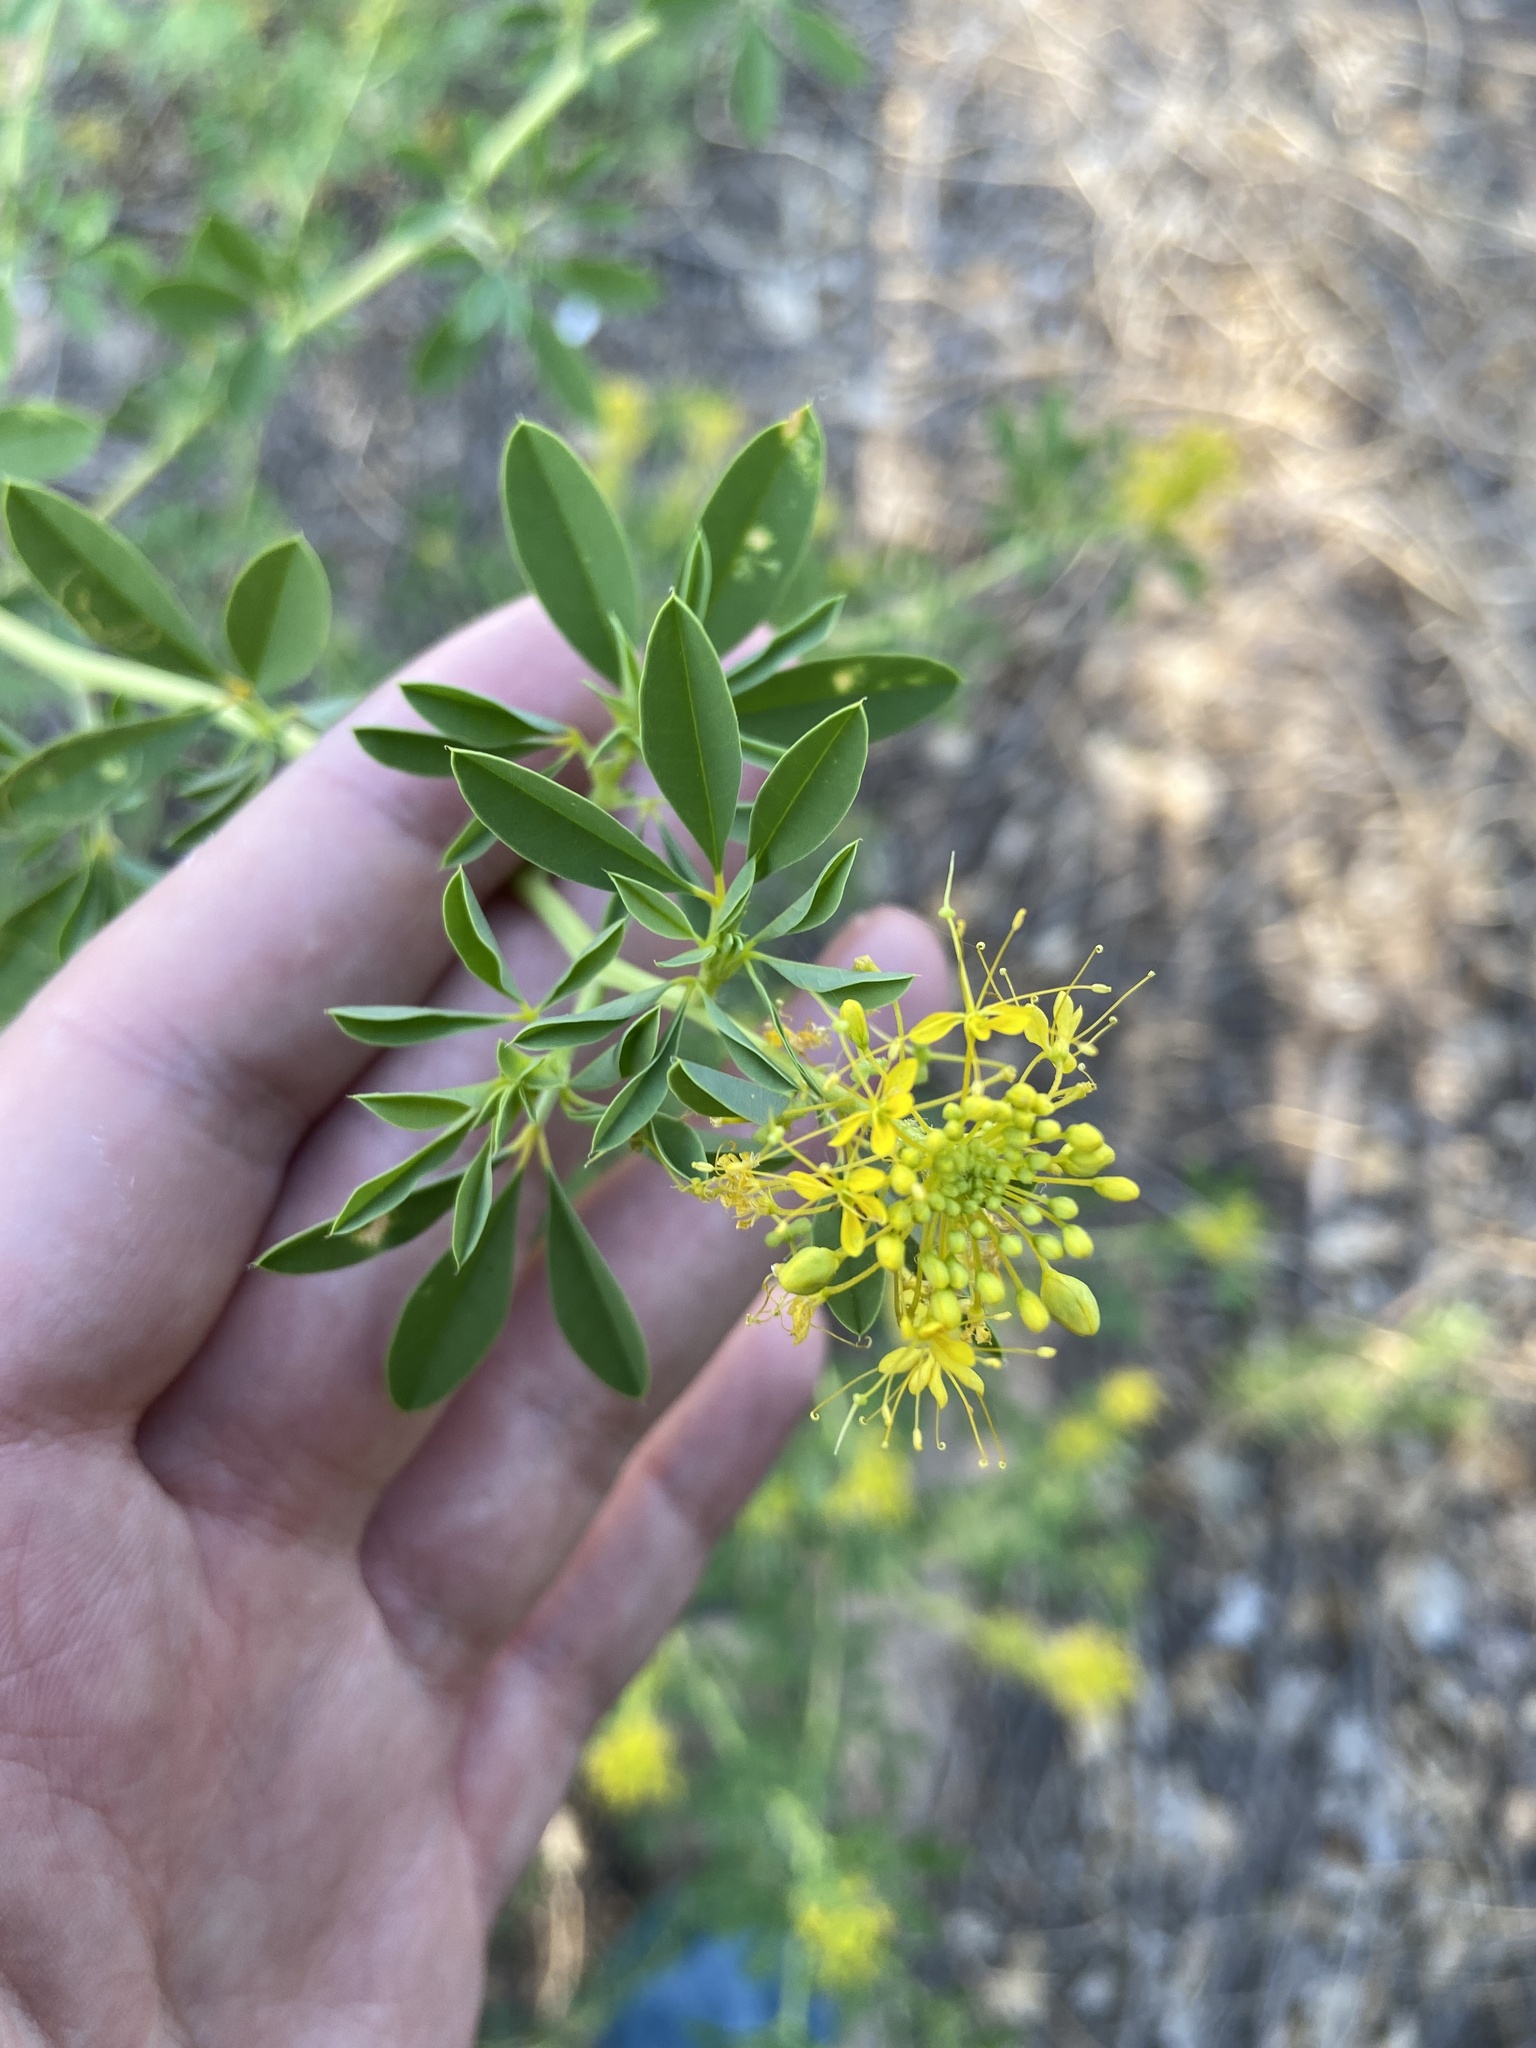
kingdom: Plantae
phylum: Tracheophyta
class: Magnoliopsida
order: Brassicales
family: Cleomaceae
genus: Cleomella
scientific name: Cleomella refracta
